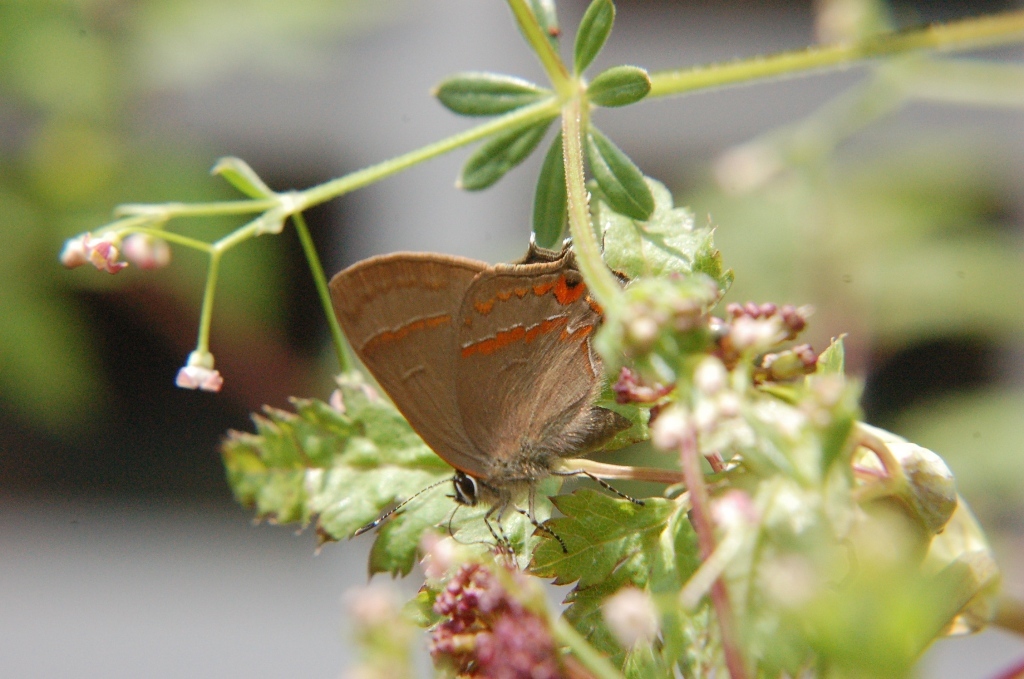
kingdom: Animalia
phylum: Arthropoda
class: Insecta
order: Lepidoptera
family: Lycaenidae
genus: Electrostrymon
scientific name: Electrostrymon
